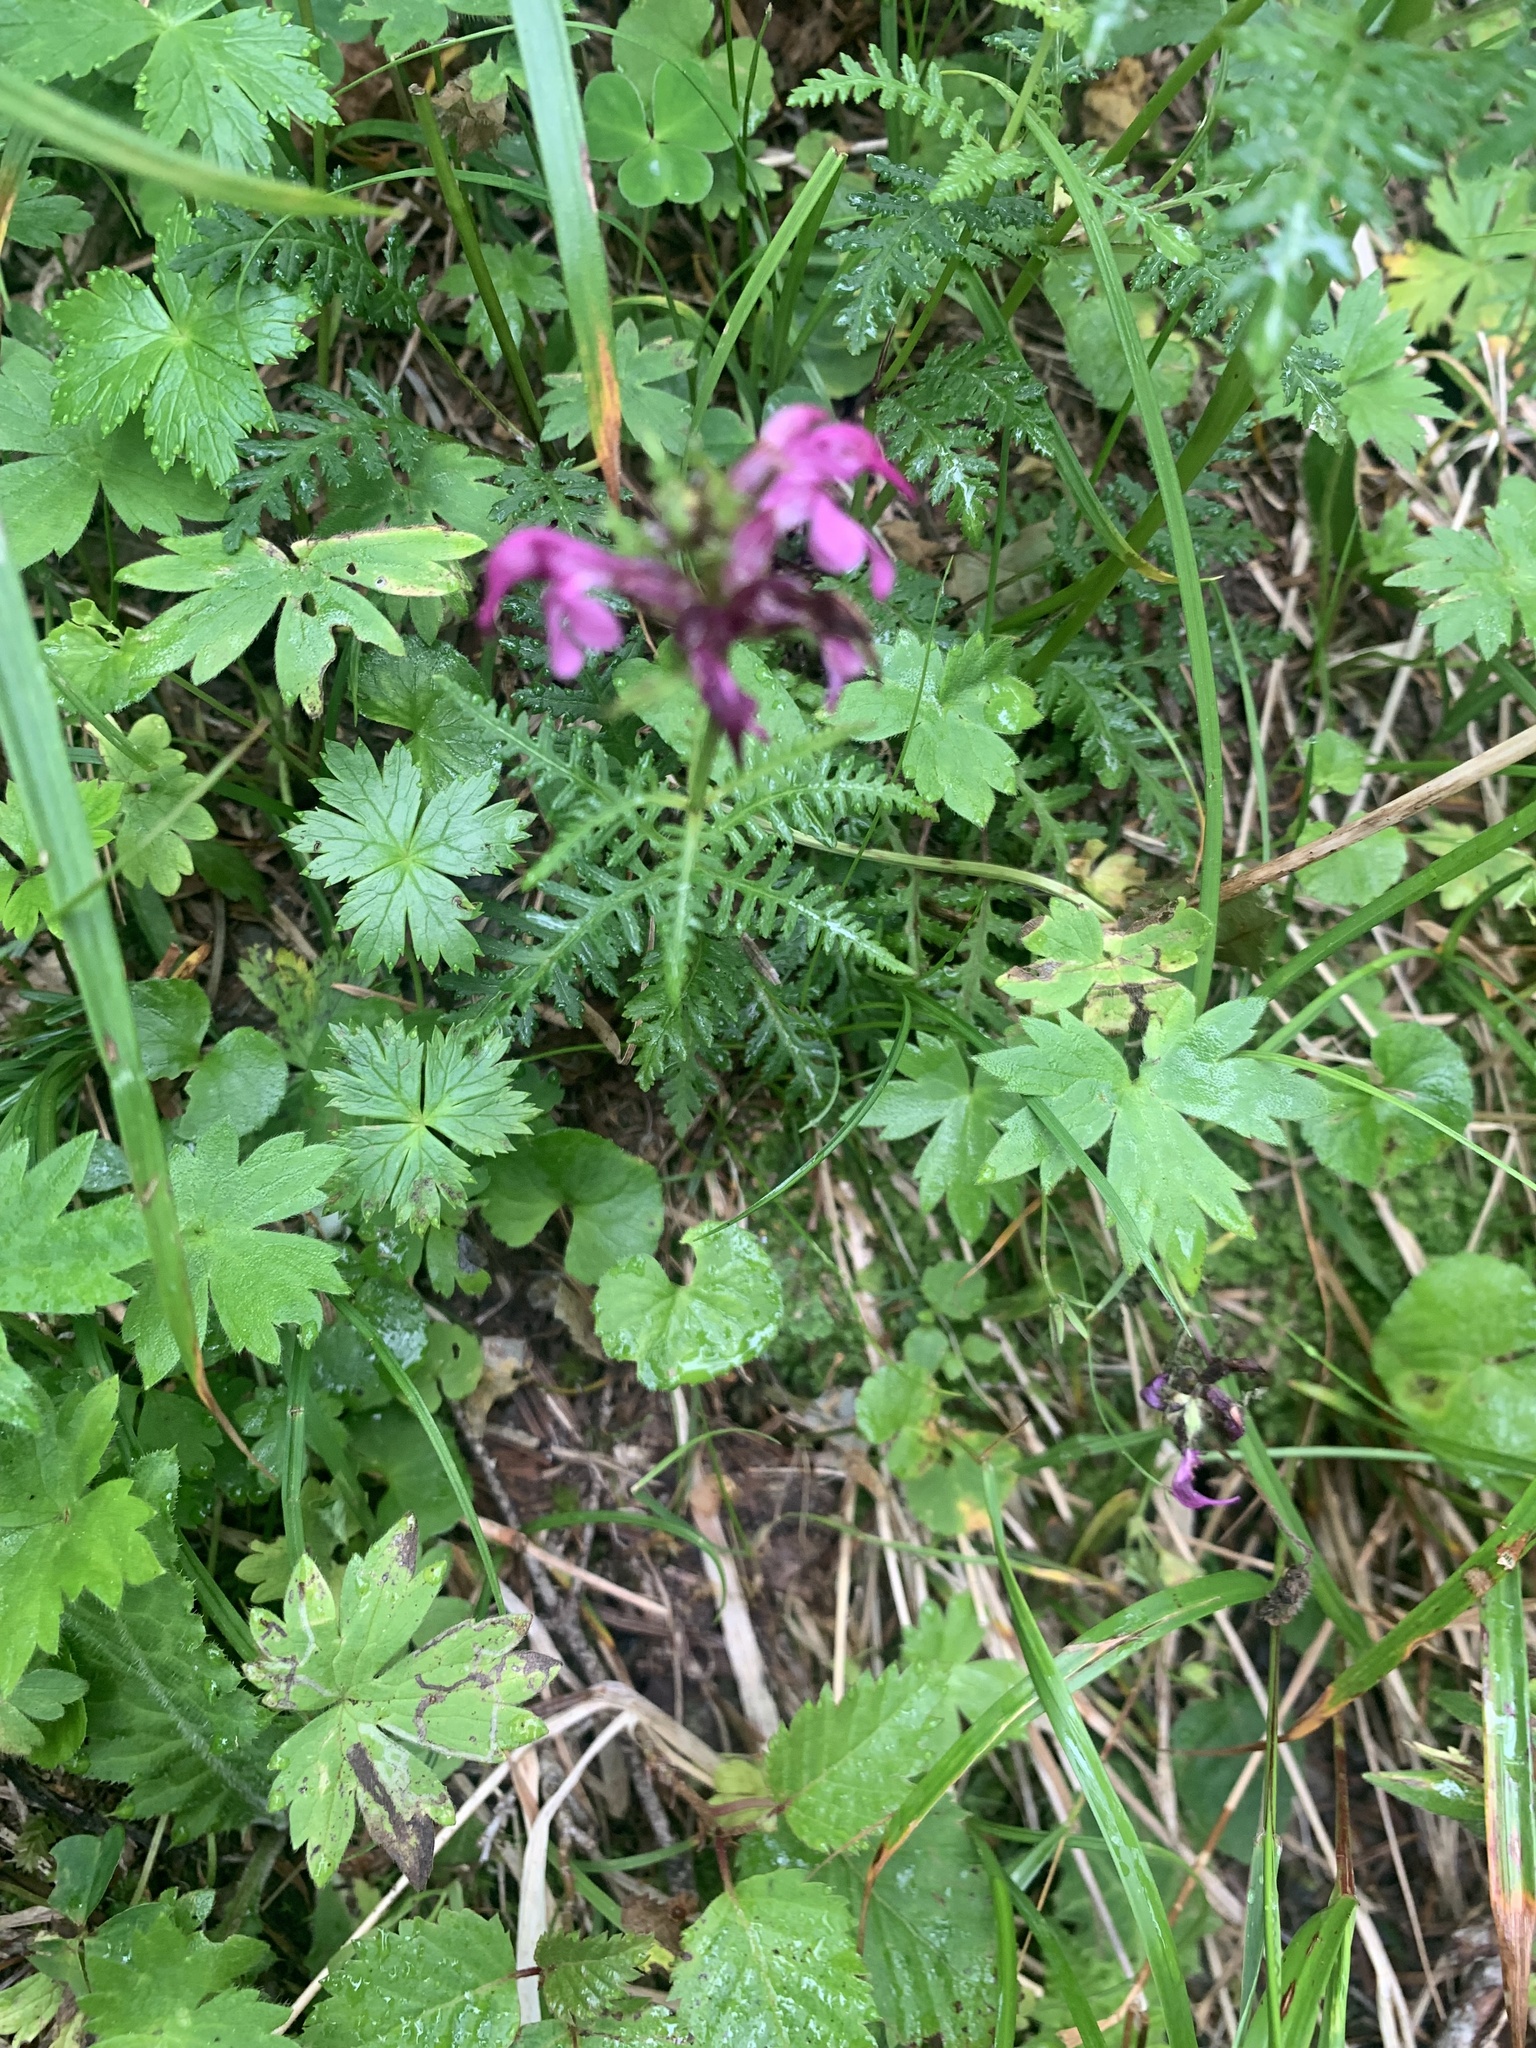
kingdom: Plantae
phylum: Tracheophyta
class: Magnoliopsida
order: Lamiales
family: Orobanchaceae
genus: Pedicularis
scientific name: Pedicularis chamissonis
